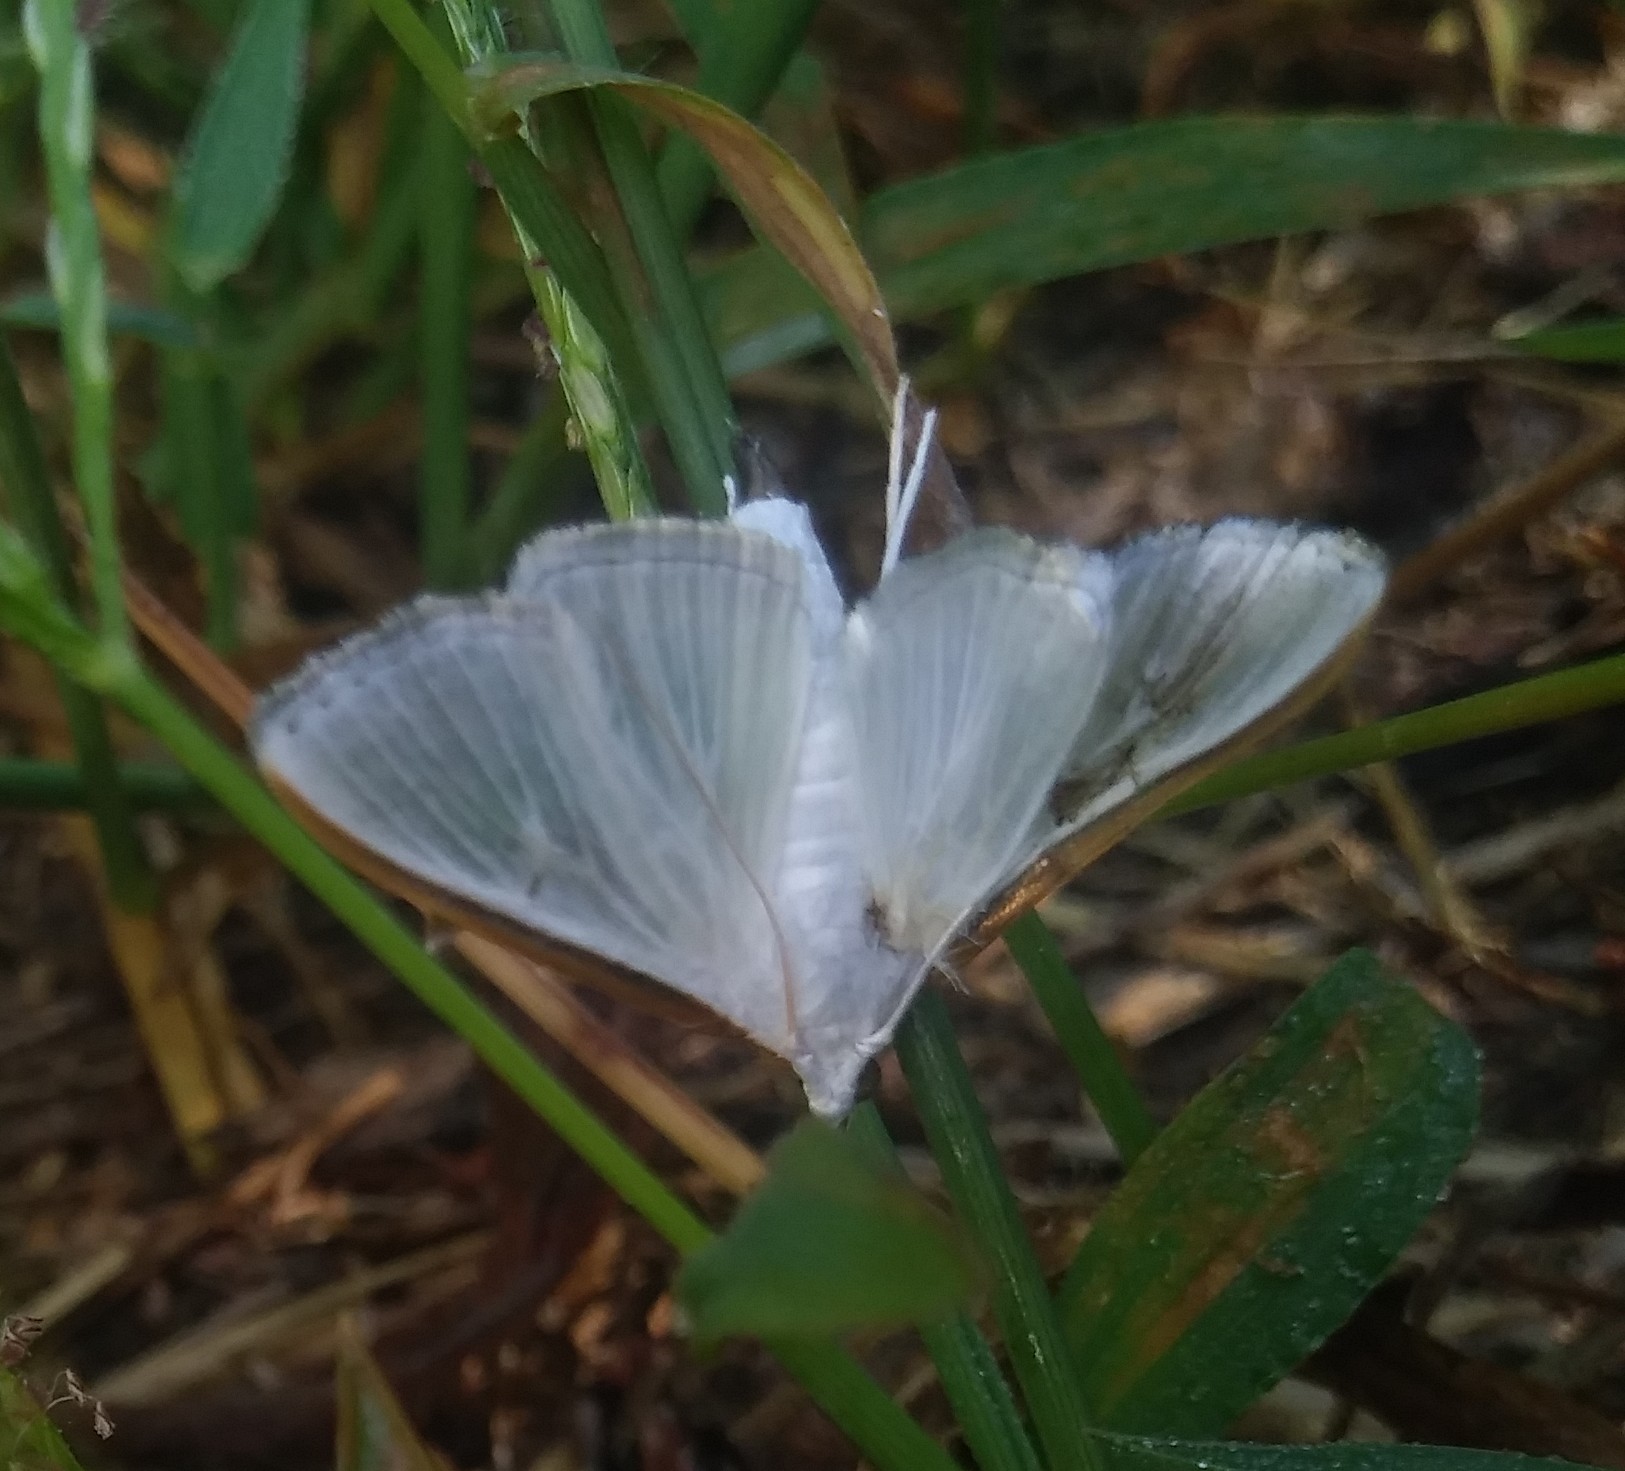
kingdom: Animalia
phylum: Arthropoda
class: Insecta
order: Lepidoptera
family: Crambidae
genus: Diaphania
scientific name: Diaphania costata
